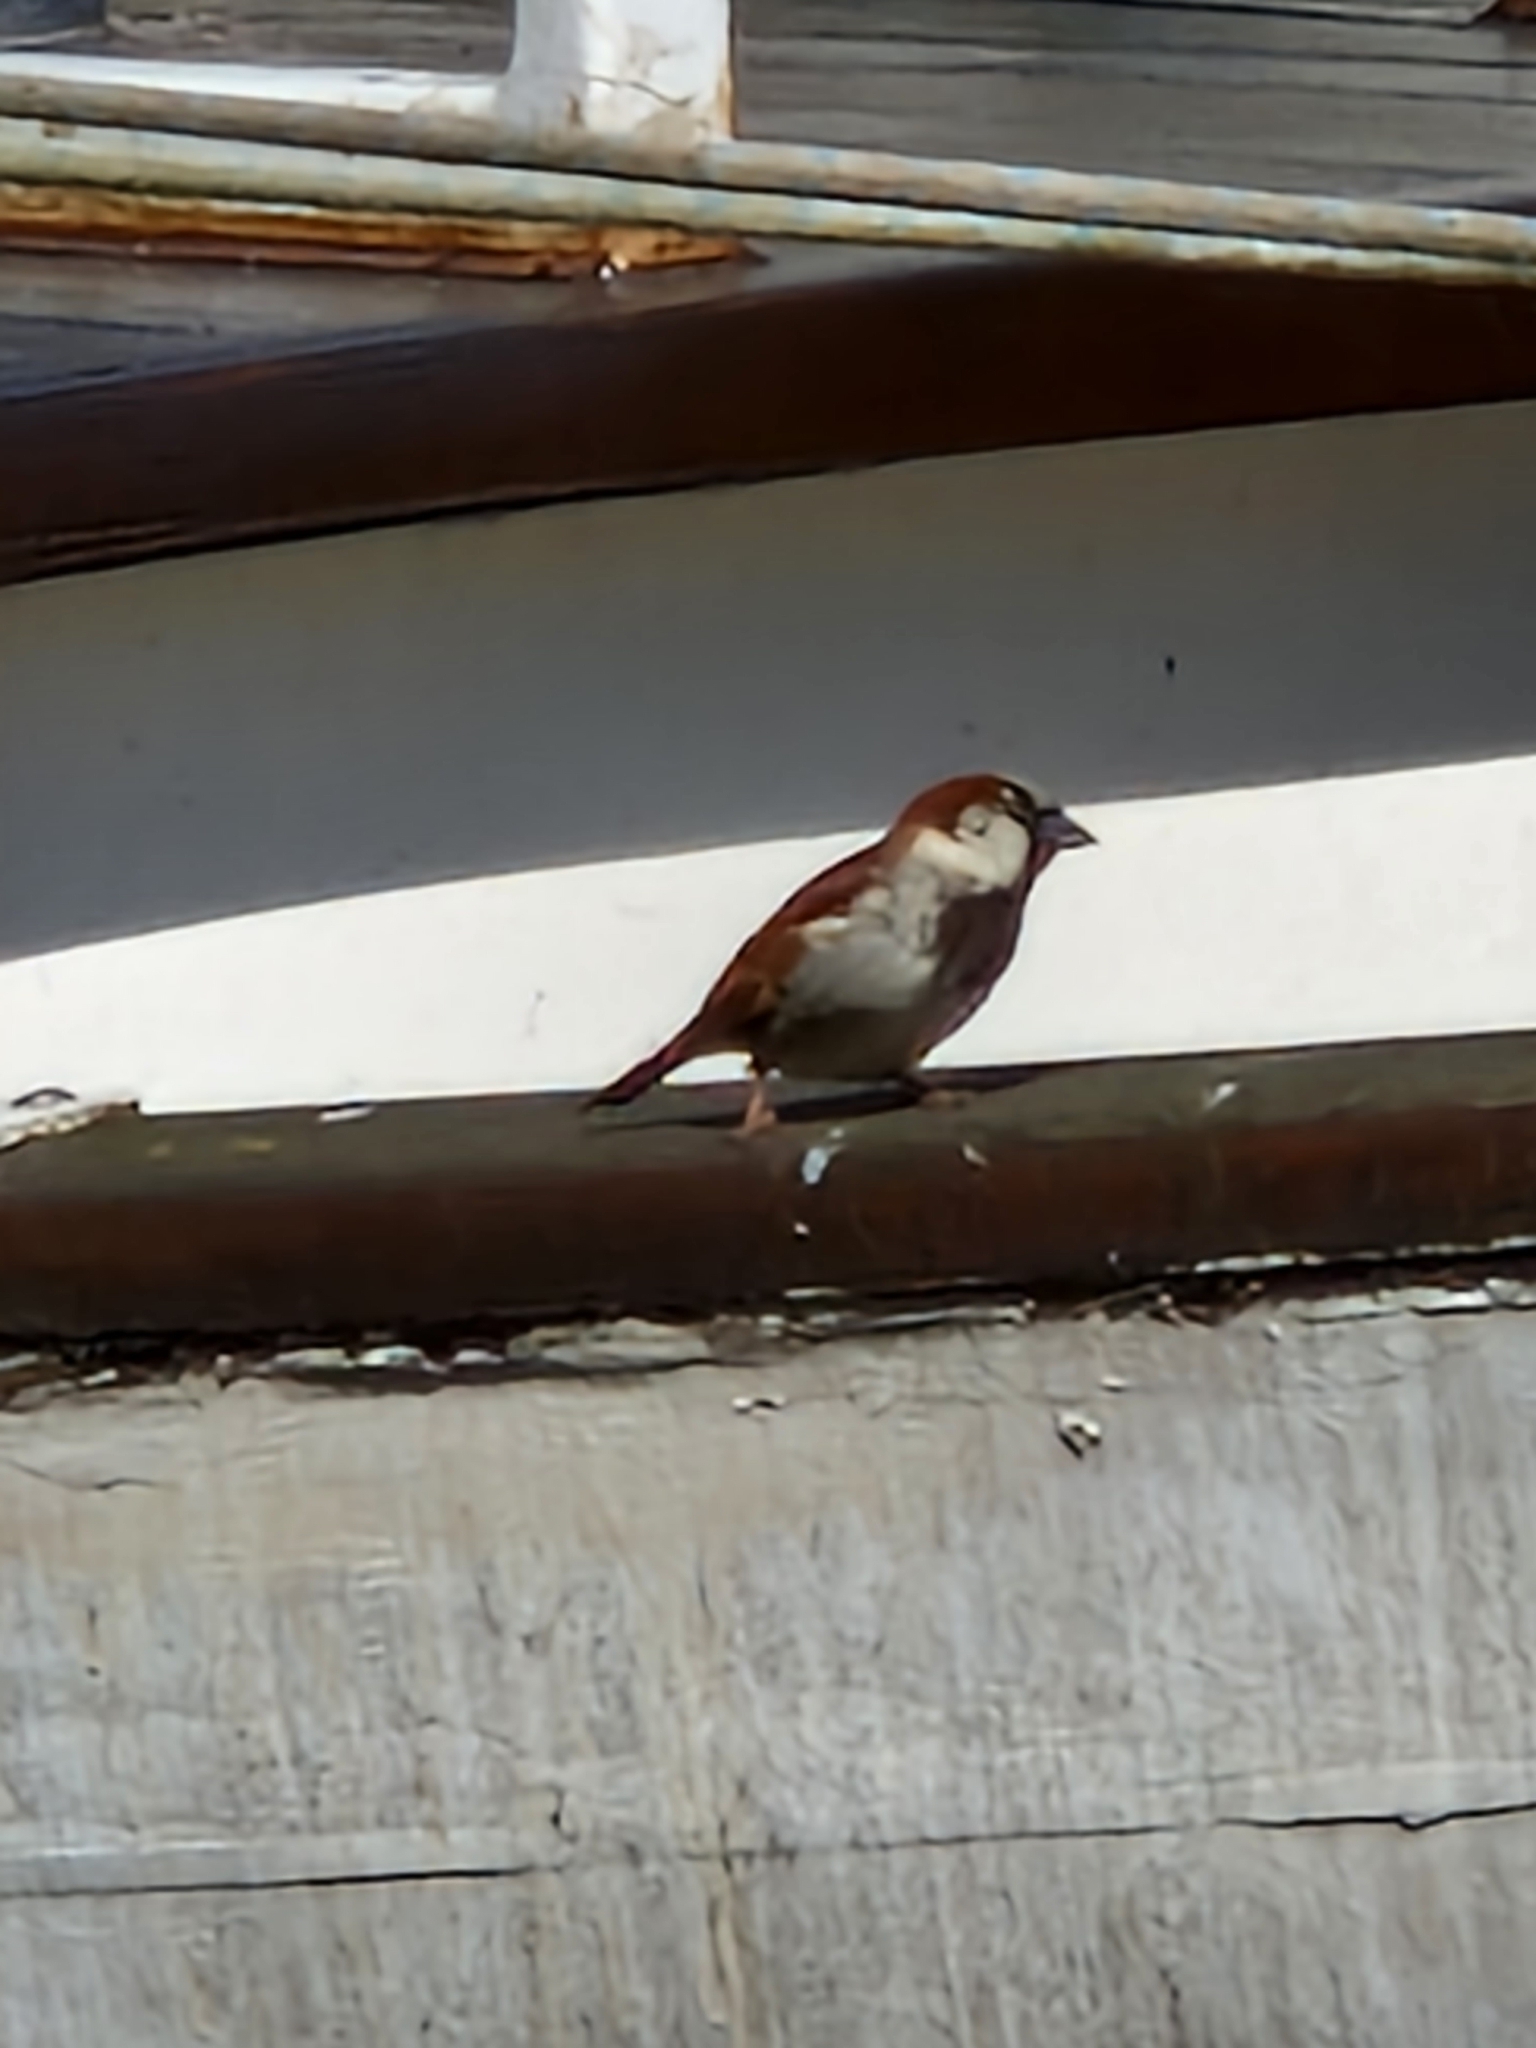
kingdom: Animalia
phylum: Chordata
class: Aves
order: Passeriformes
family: Passeridae
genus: Passer
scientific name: Passer domesticus
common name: House sparrow
